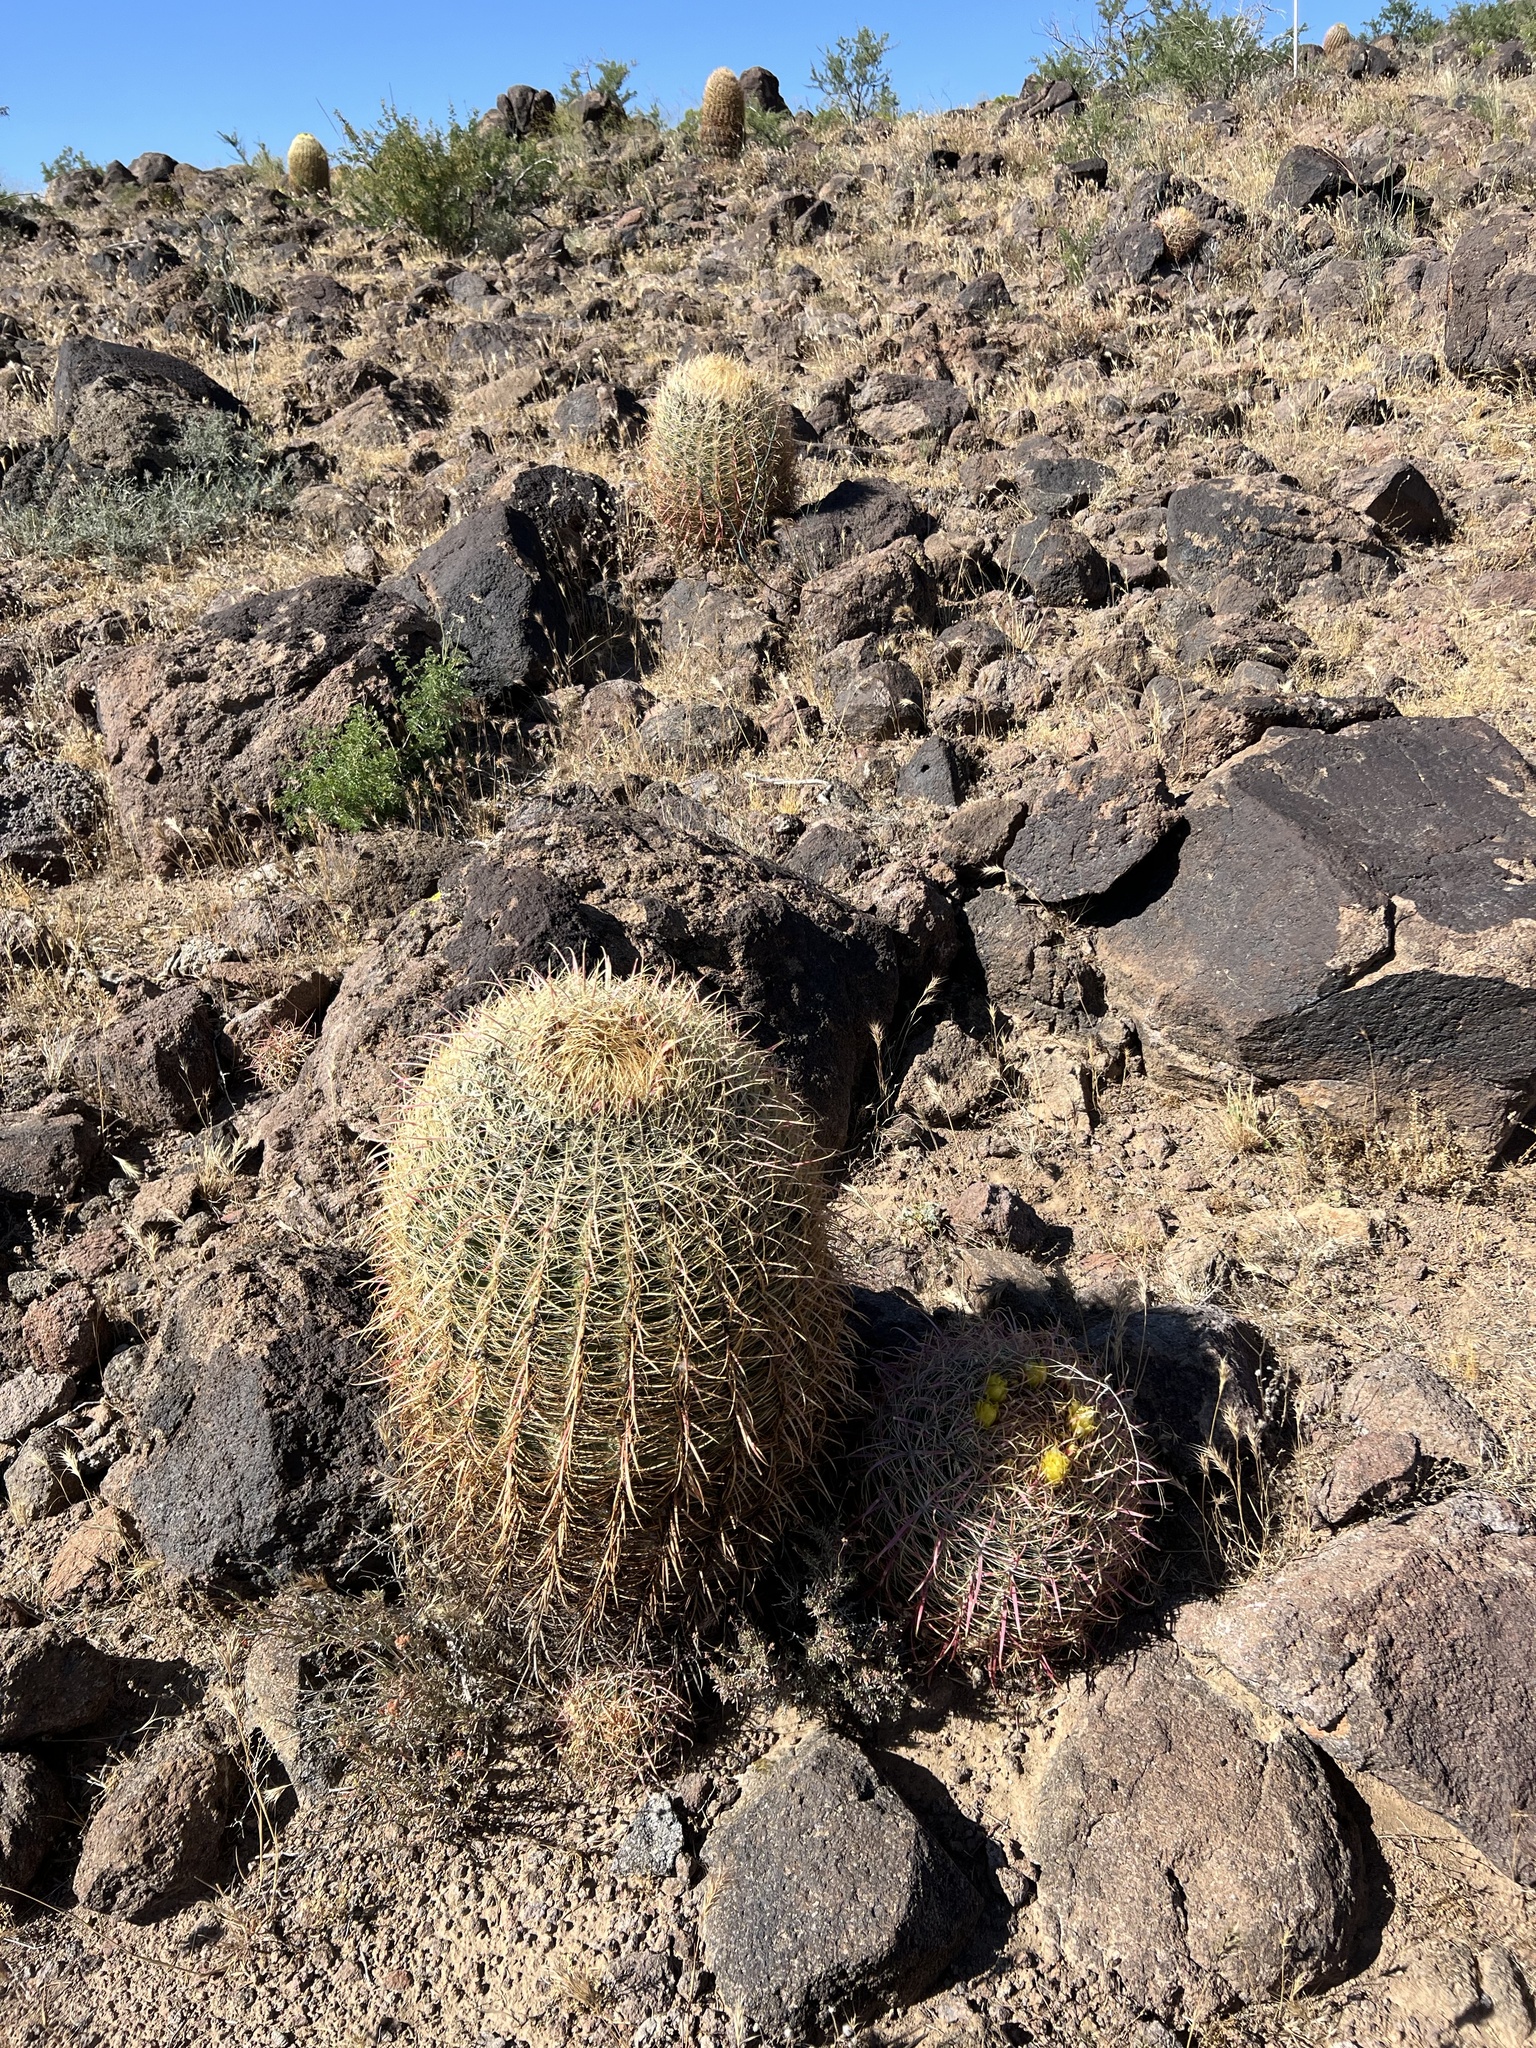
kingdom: Plantae
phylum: Tracheophyta
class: Magnoliopsida
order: Caryophyllales
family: Cactaceae
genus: Ferocactus
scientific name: Ferocactus cylindraceus
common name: California barrel cactus
